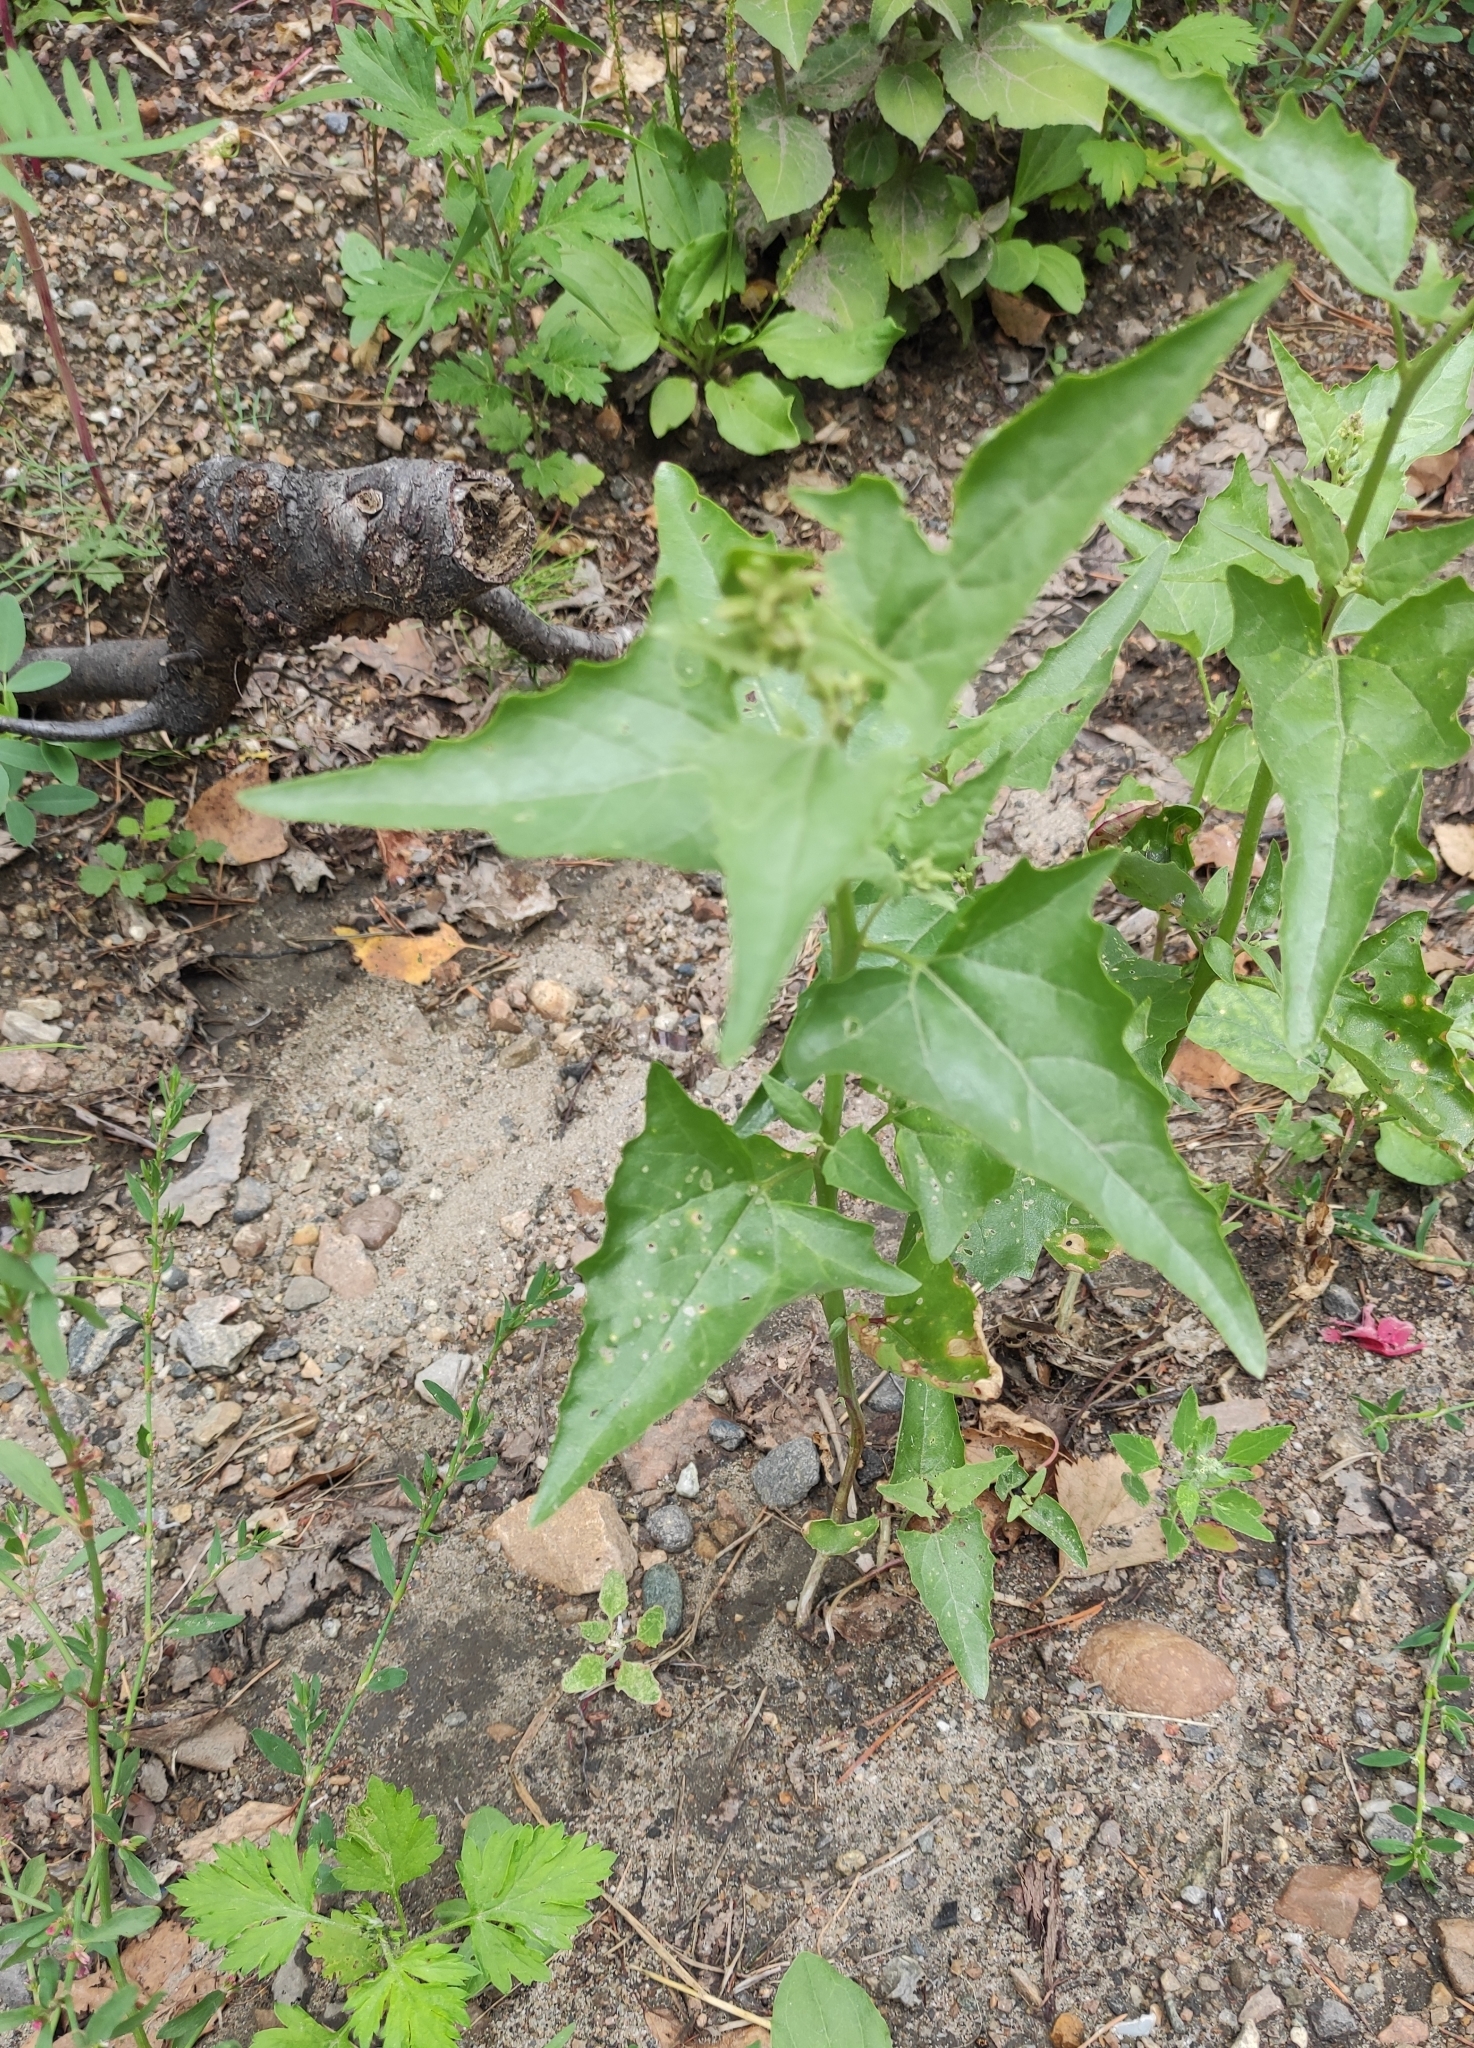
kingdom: Plantae
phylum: Tracheophyta
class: Magnoliopsida
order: Caryophyllales
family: Amaranthaceae
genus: Atriplex
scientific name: Atriplex sagittata
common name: Purple orache
